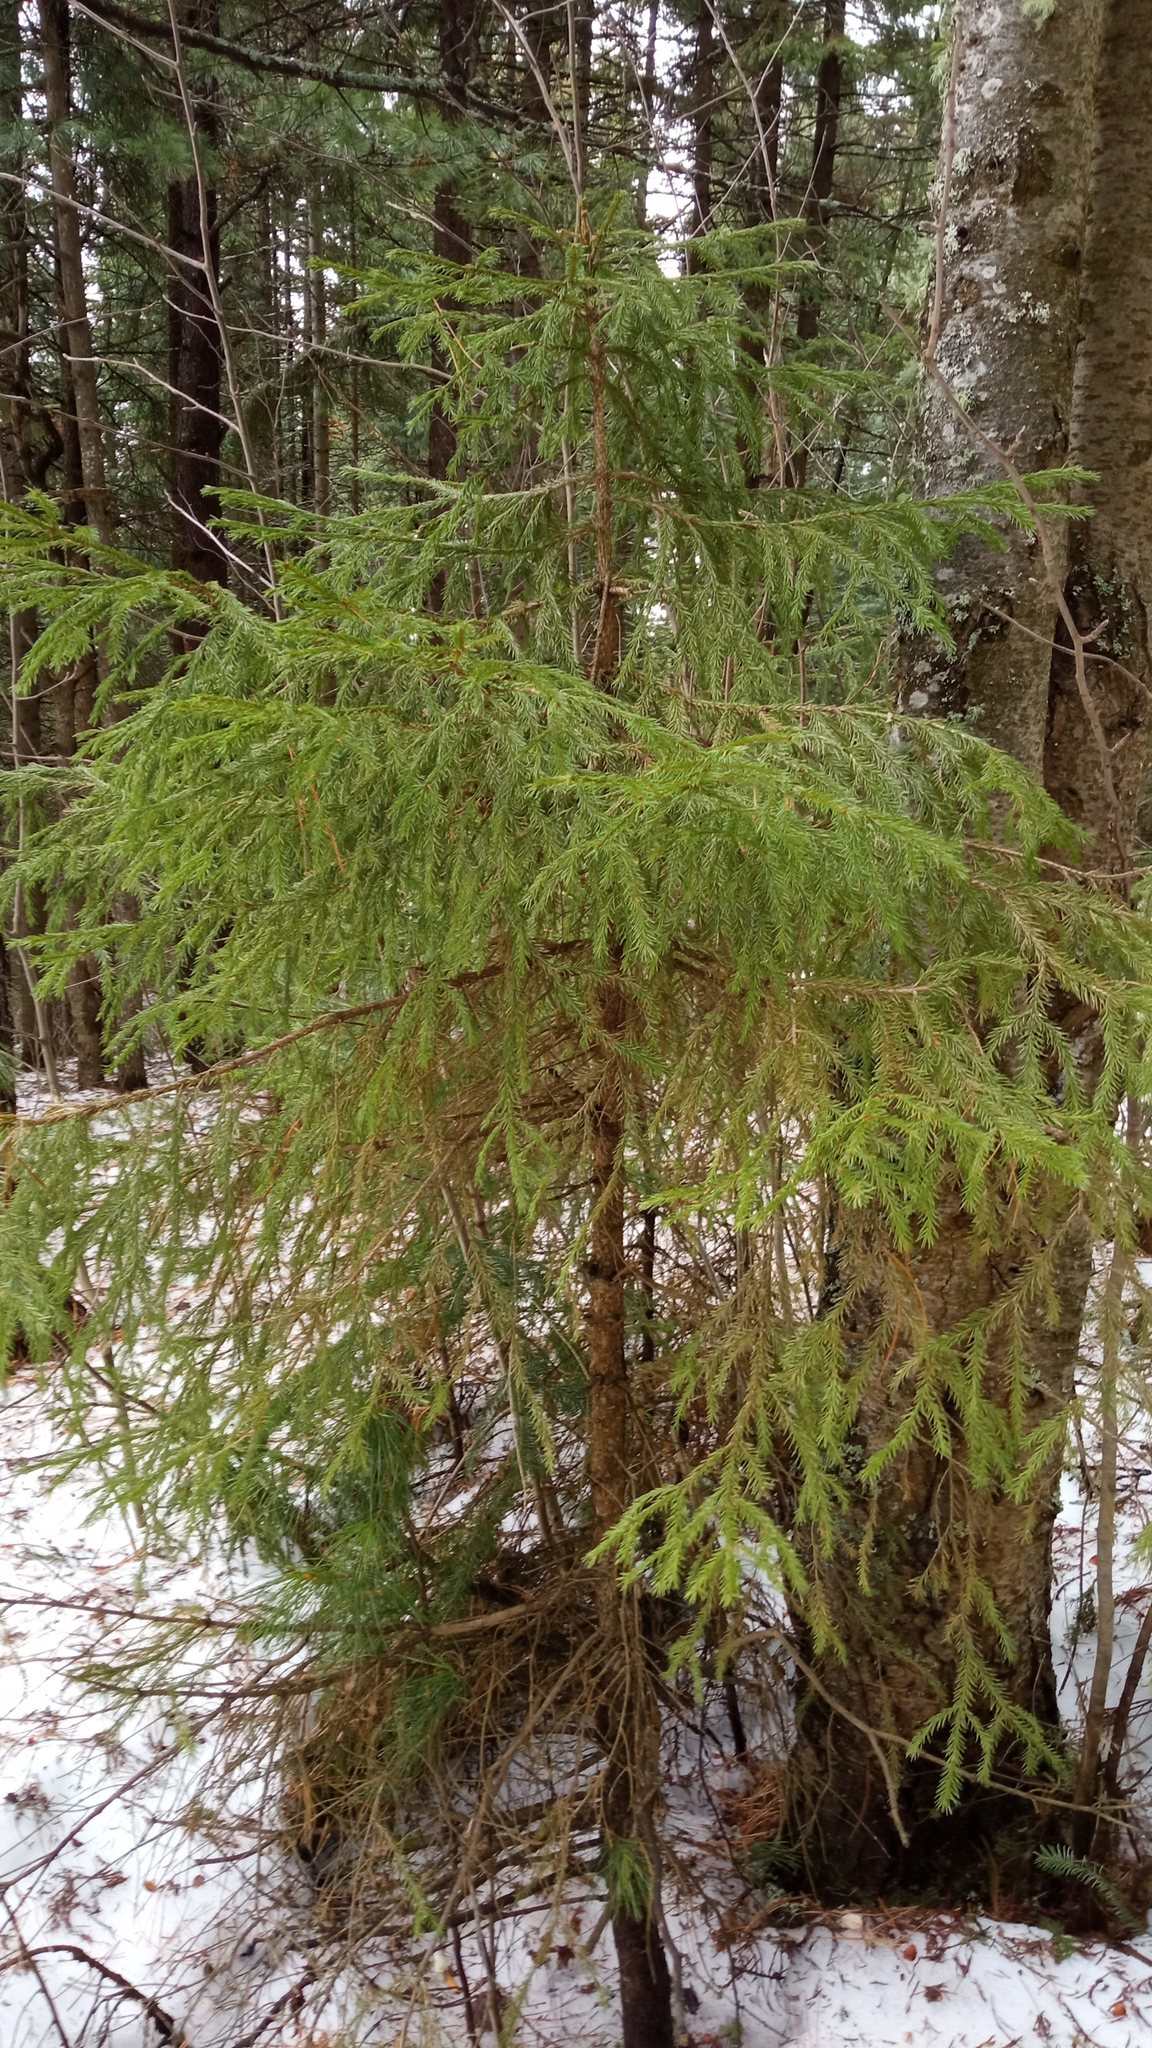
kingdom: Plantae
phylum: Tracheophyta
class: Pinopsida
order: Pinales
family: Pinaceae
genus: Picea
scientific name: Picea obovata
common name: Siberian spruce
